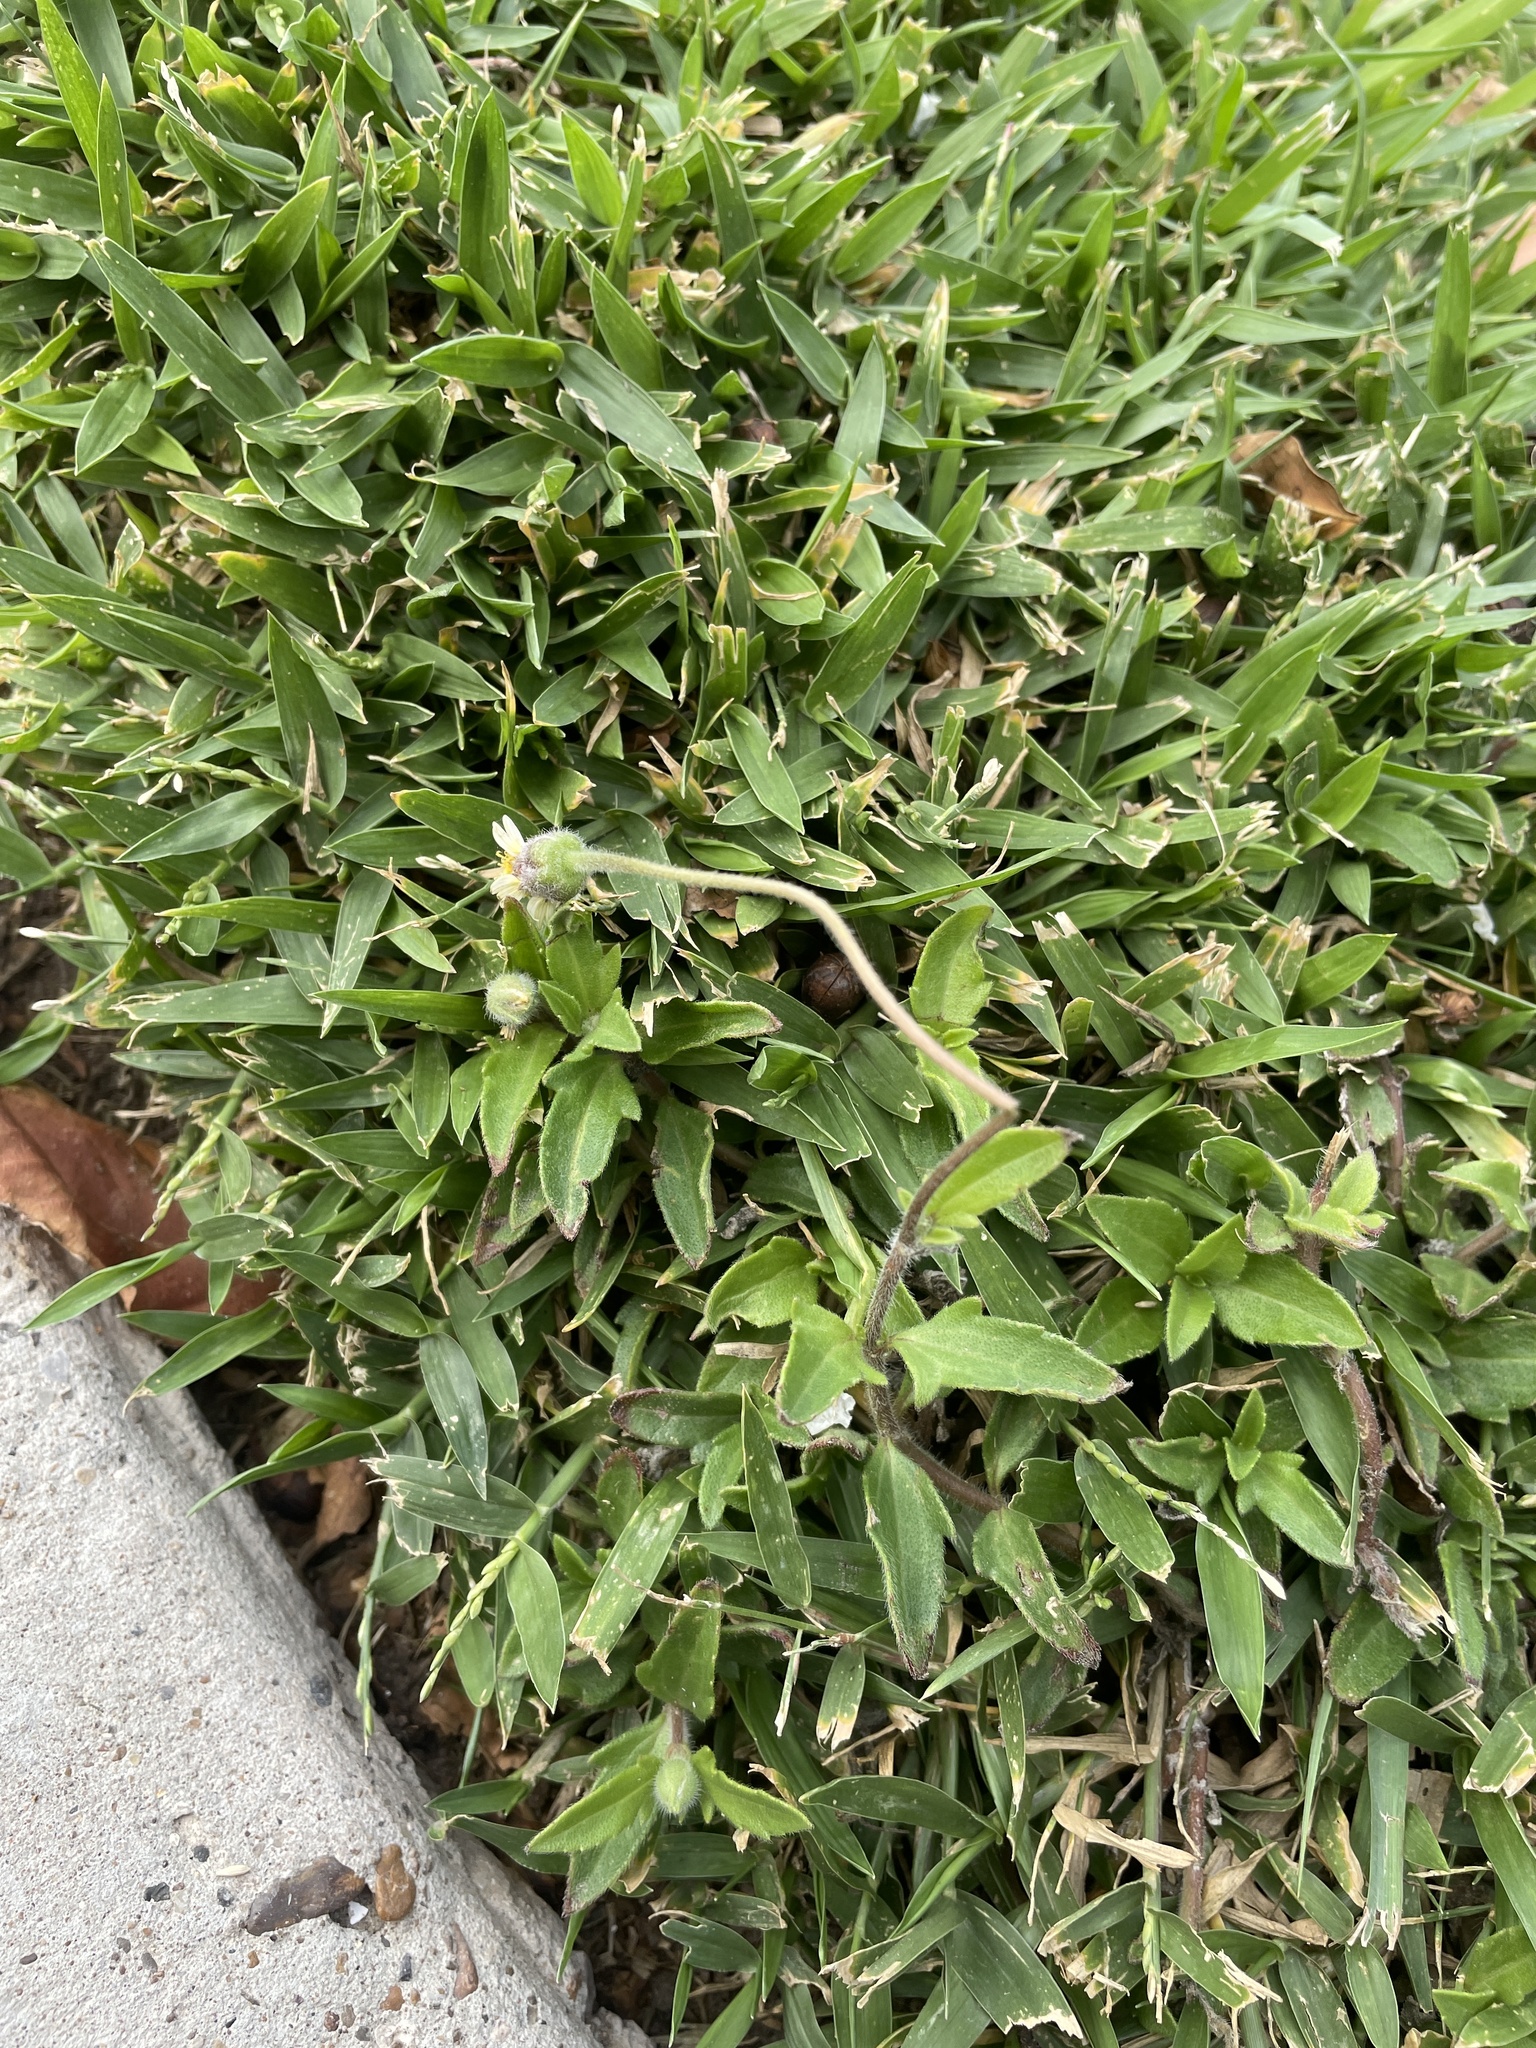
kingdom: Plantae
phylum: Tracheophyta
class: Magnoliopsida
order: Asterales
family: Asteraceae
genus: Tridax
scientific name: Tridax procumbens
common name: Coatbuttons
